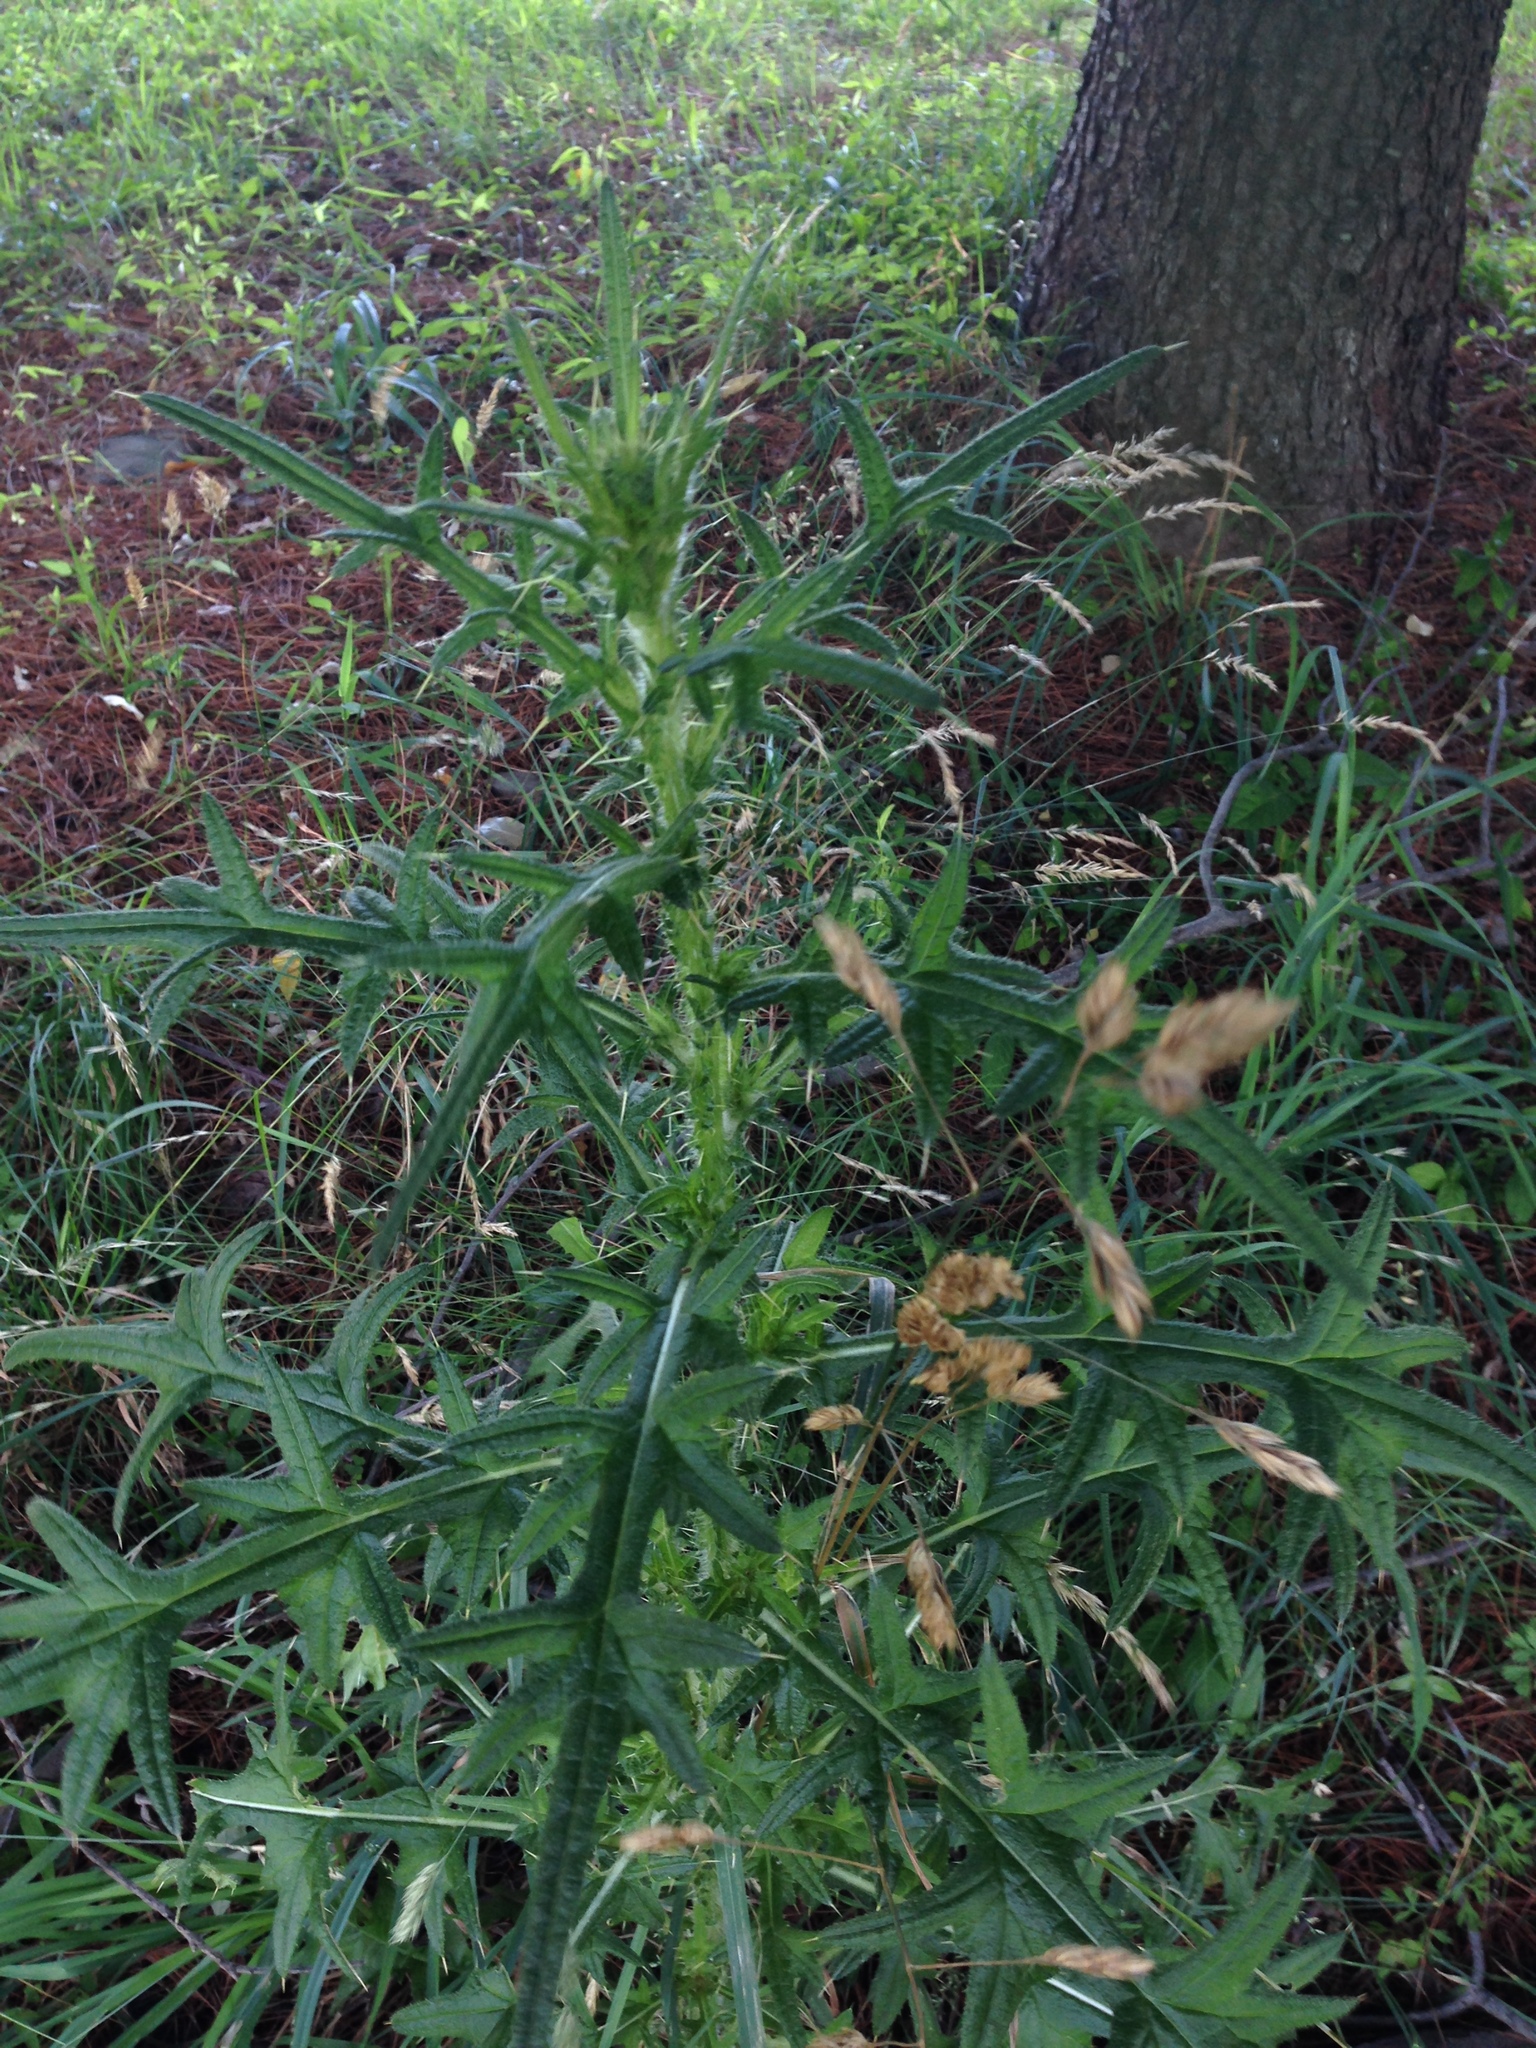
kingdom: Plantae
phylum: Tracheophyta
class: Magnoliopsida
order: Asterales
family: Asteraceae
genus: Cirsium
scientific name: Cirsium vulgare
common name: Bull thistle
